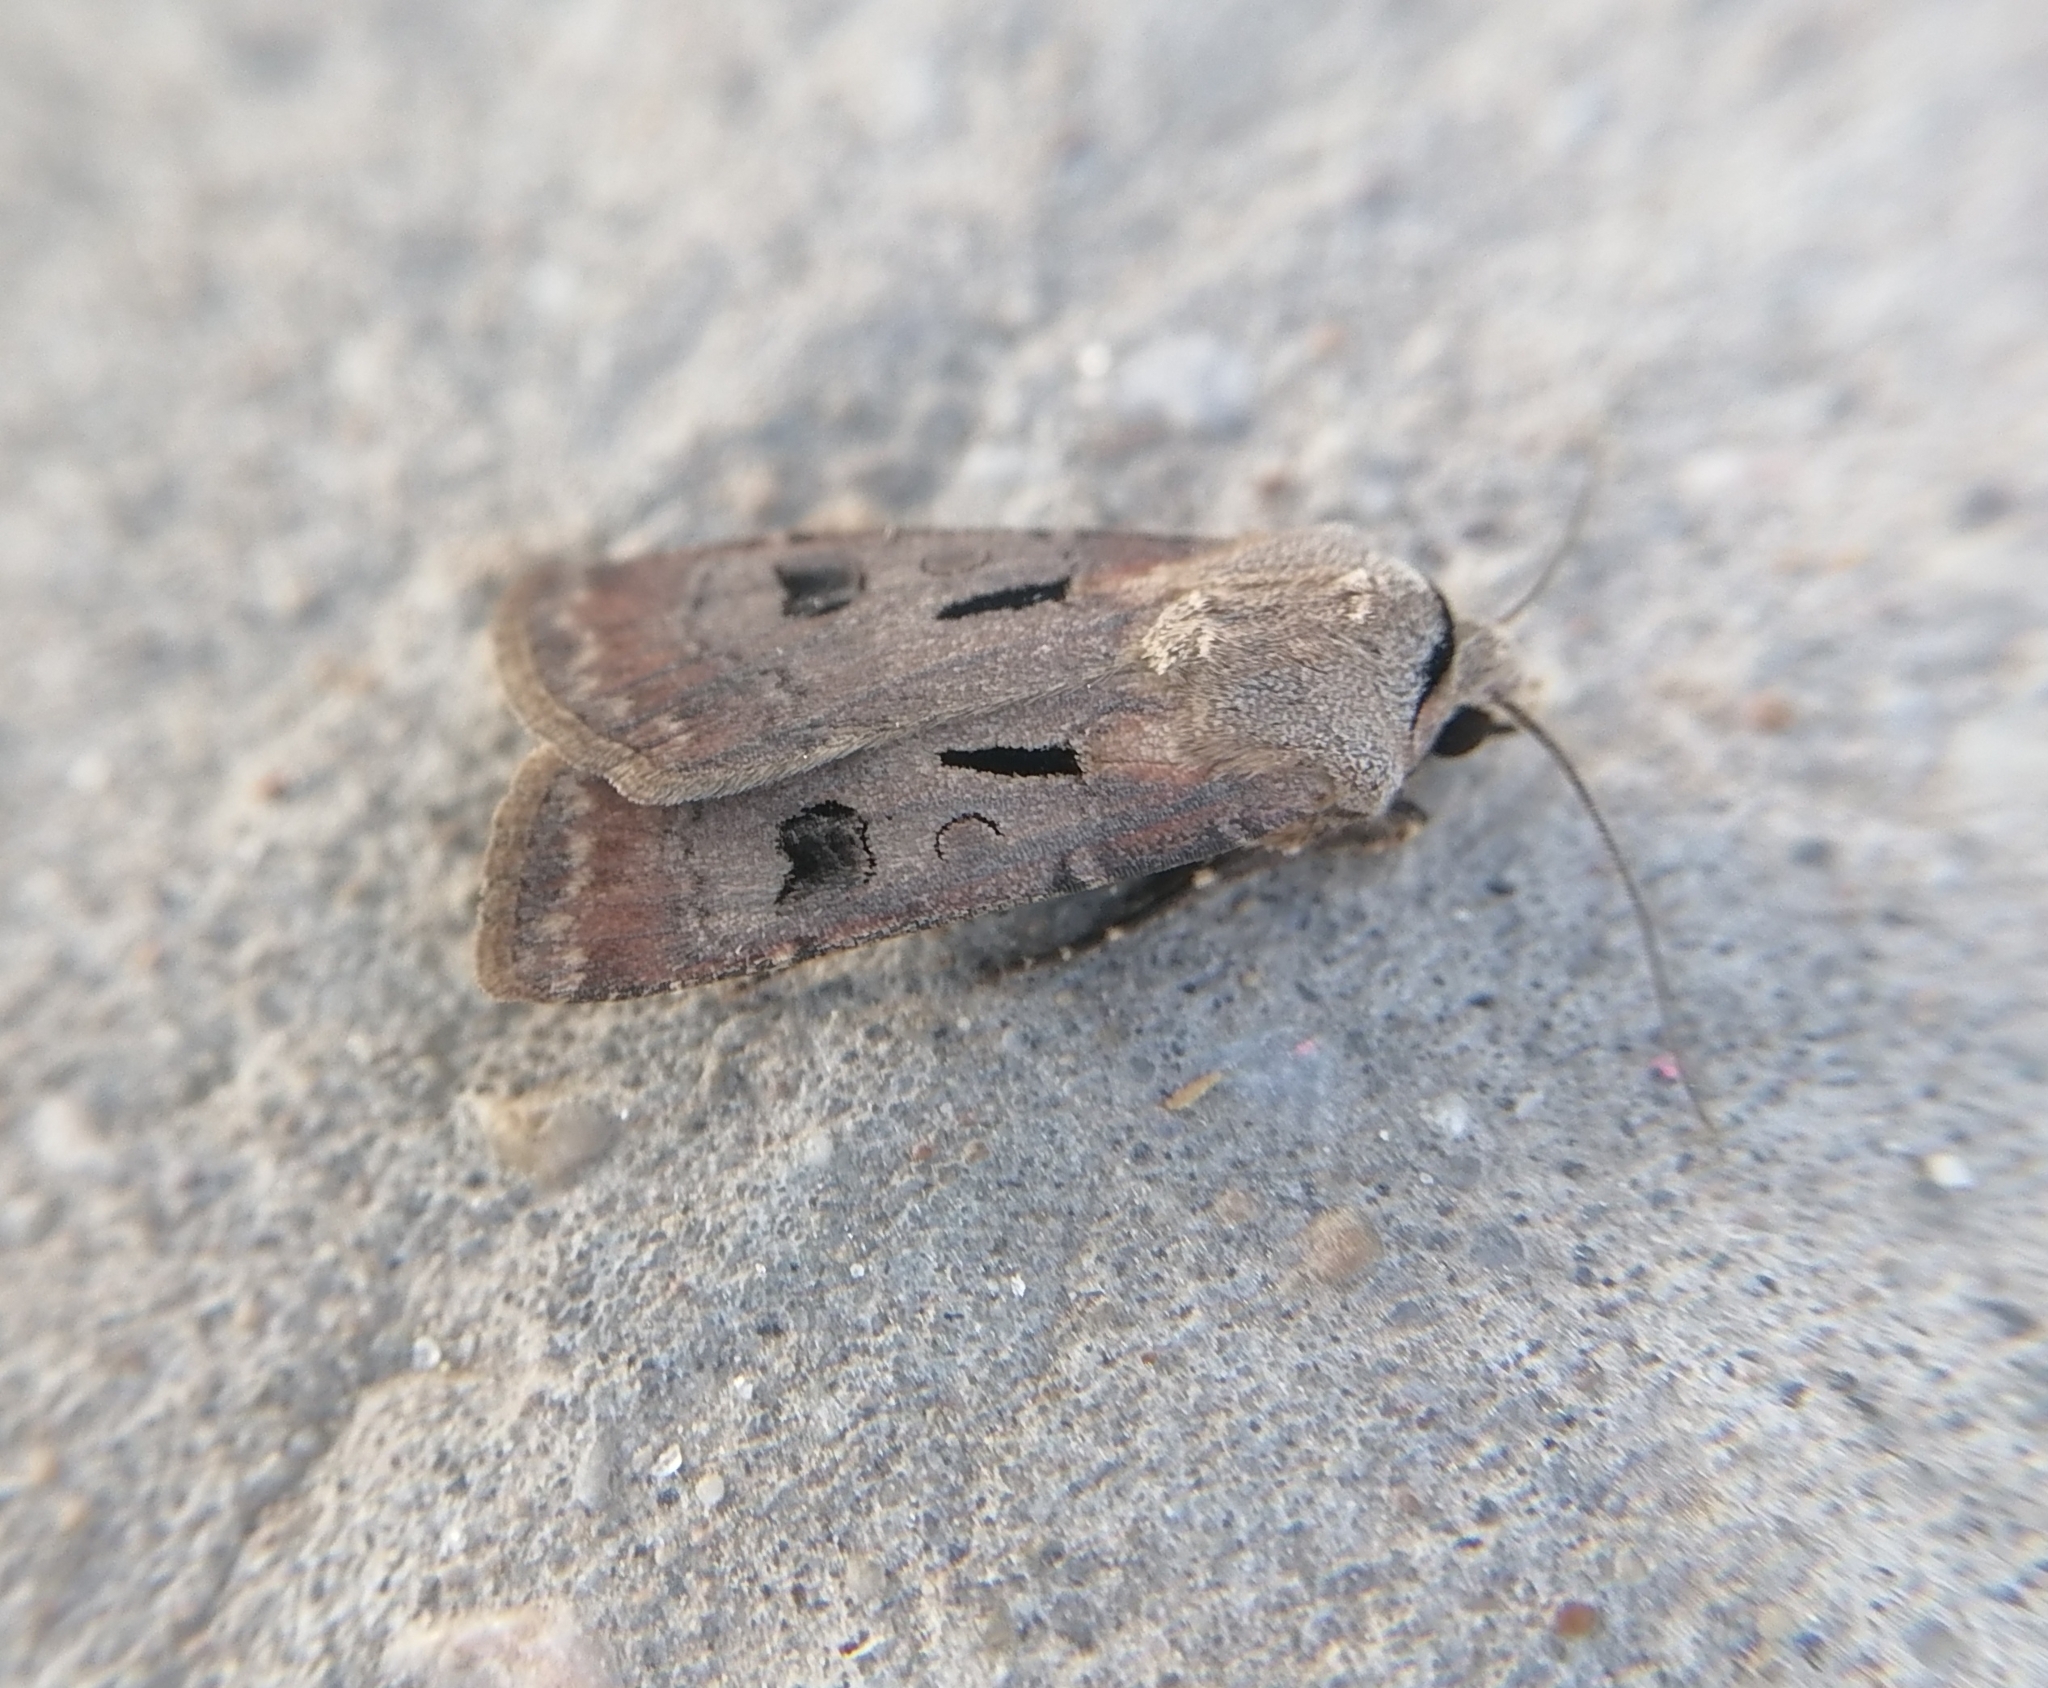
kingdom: Animalia
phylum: Arthropoda
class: Insecta
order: Lepidoptera
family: Noctuidae
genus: Agrotis
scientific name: Agrotis exclamationis
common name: Heart and dart
